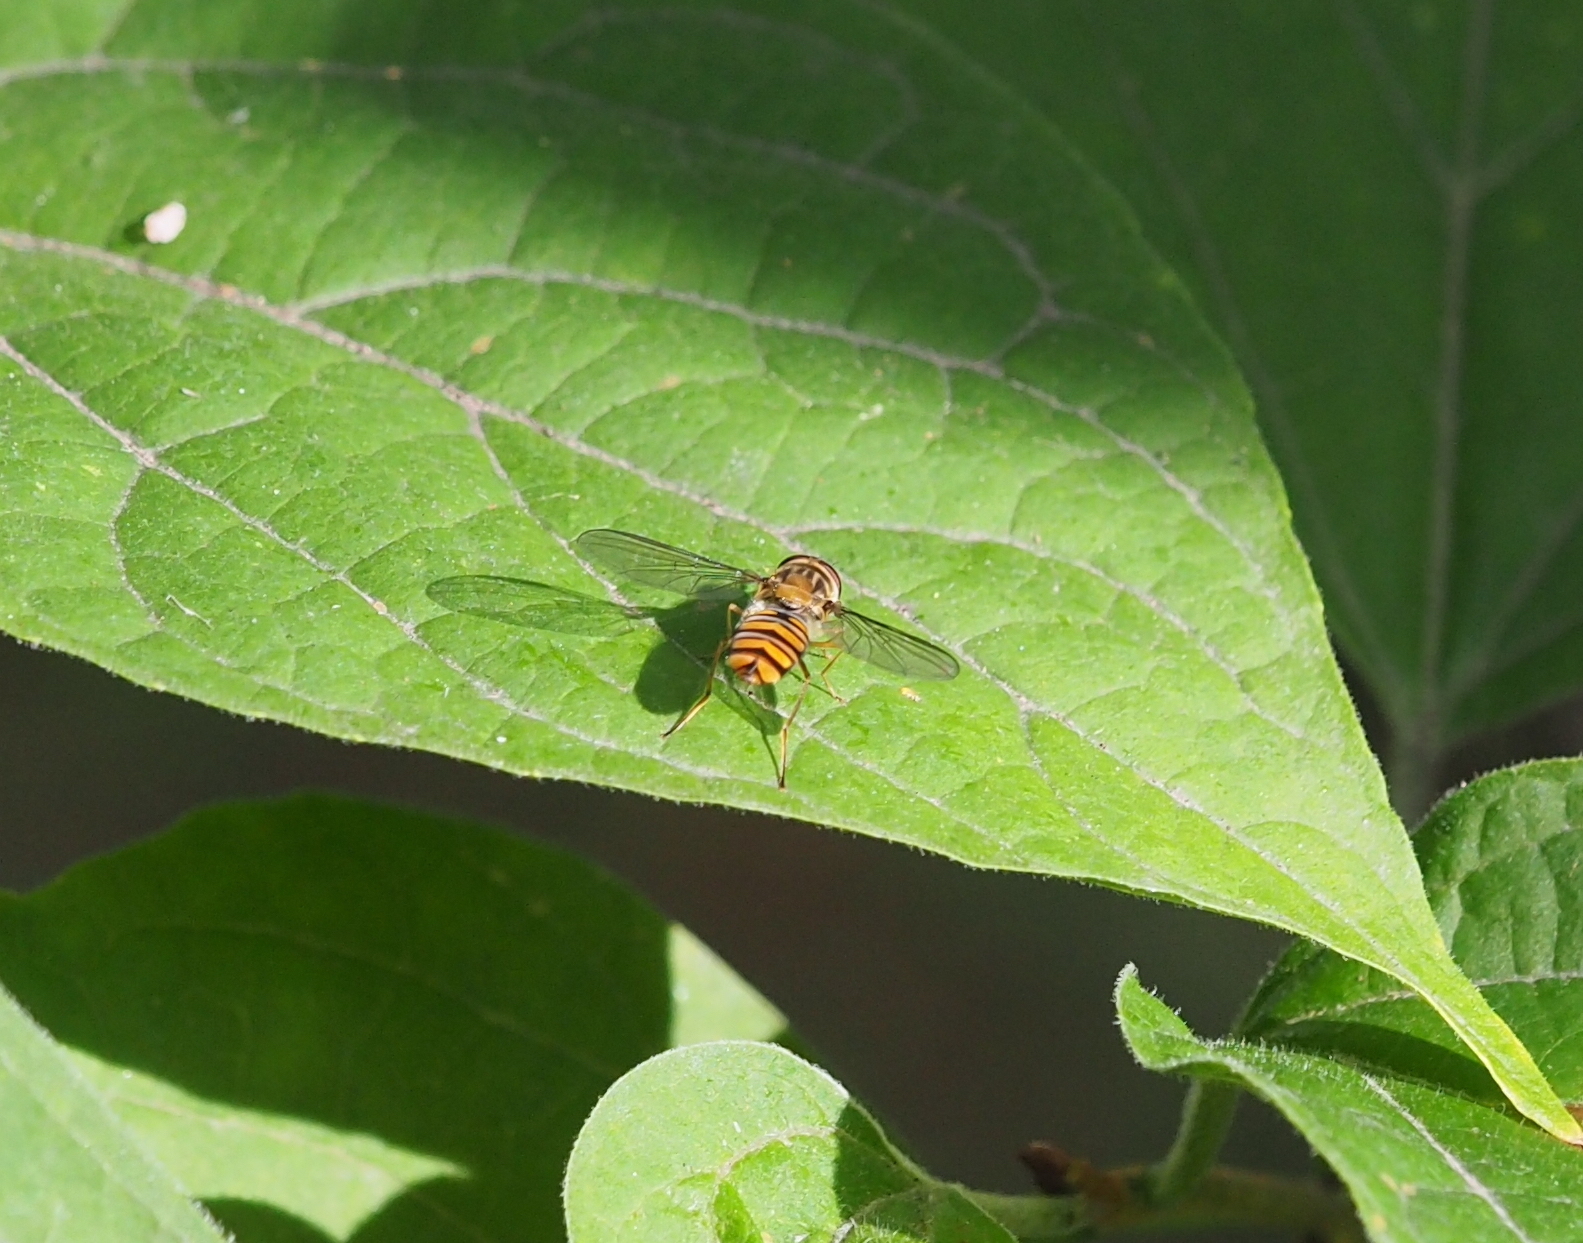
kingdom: Animalia
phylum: Arthropoda
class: Insecta
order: Diptera
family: Syrphidae
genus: Episyrphus
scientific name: Episyrphus balteatus
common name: Marmalade hoverfly
